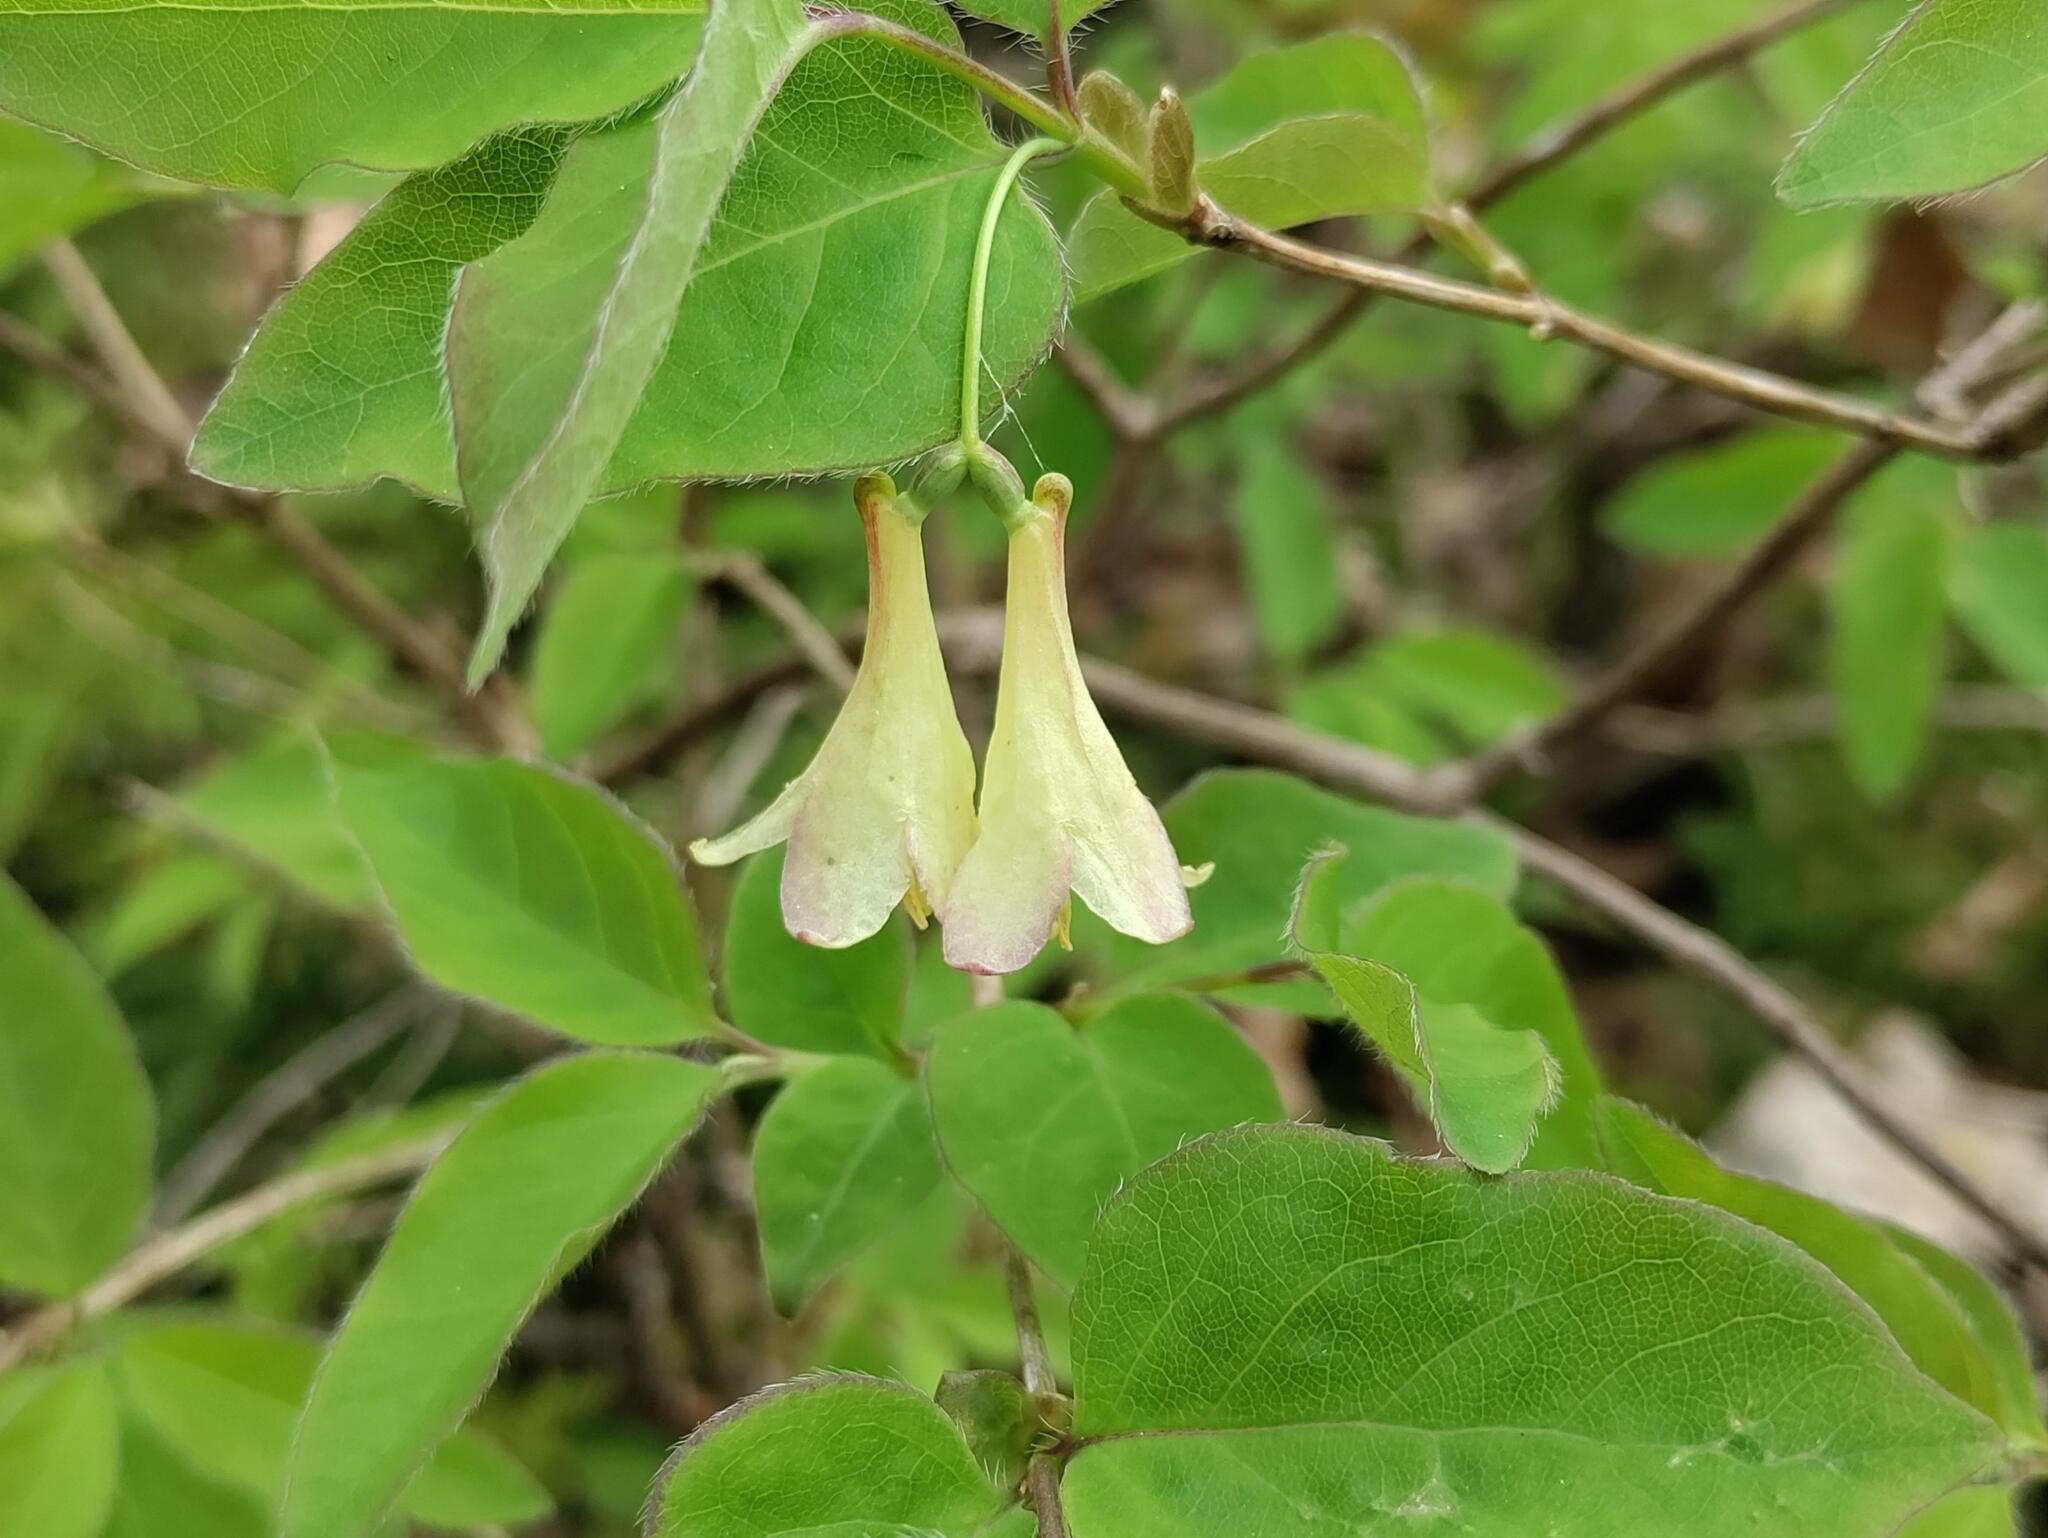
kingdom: Plantae
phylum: Tracheophyta
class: Magnoliopsida
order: Dipsacales
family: Caprifoliaceae
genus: Lonicera
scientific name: Lonicera canadensis
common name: American fly-honeysuckle
